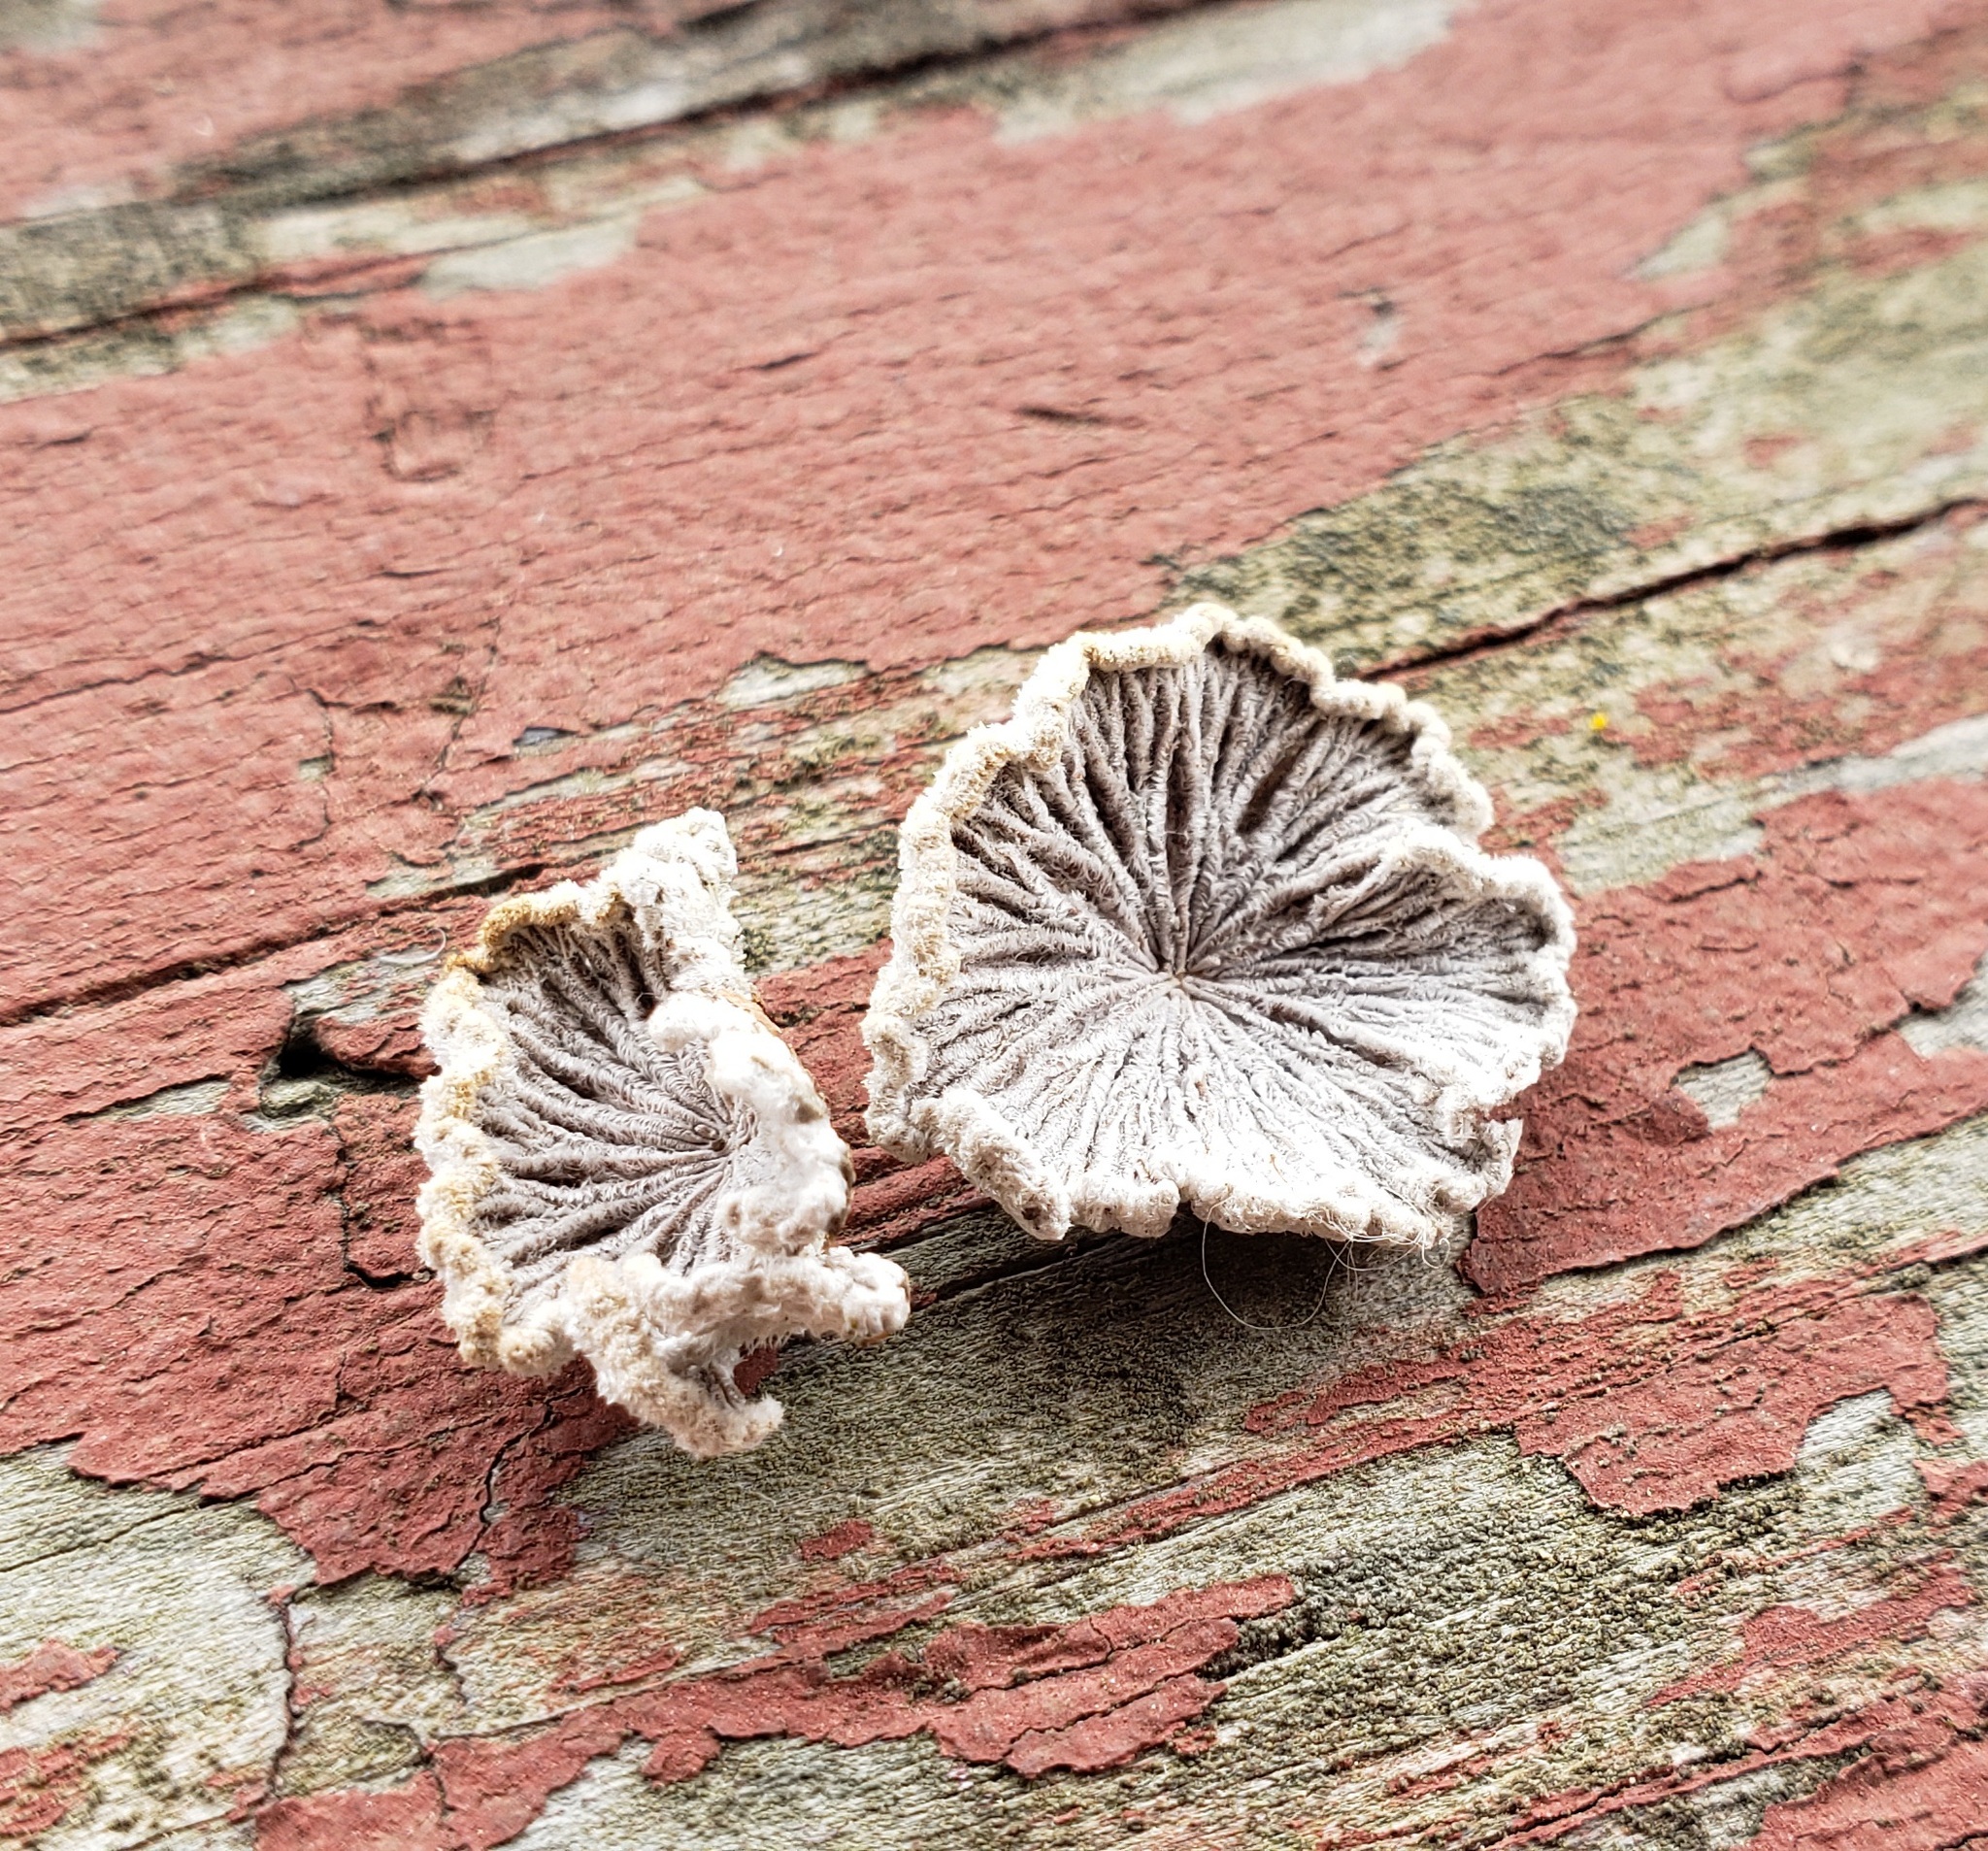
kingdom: Fungi
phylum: Basidiomycota
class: Agaricomycetes
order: Agaricales
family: Schizophyllaceae
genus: Schizophyllum
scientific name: Schizophyllum commune
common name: Common porecrust
